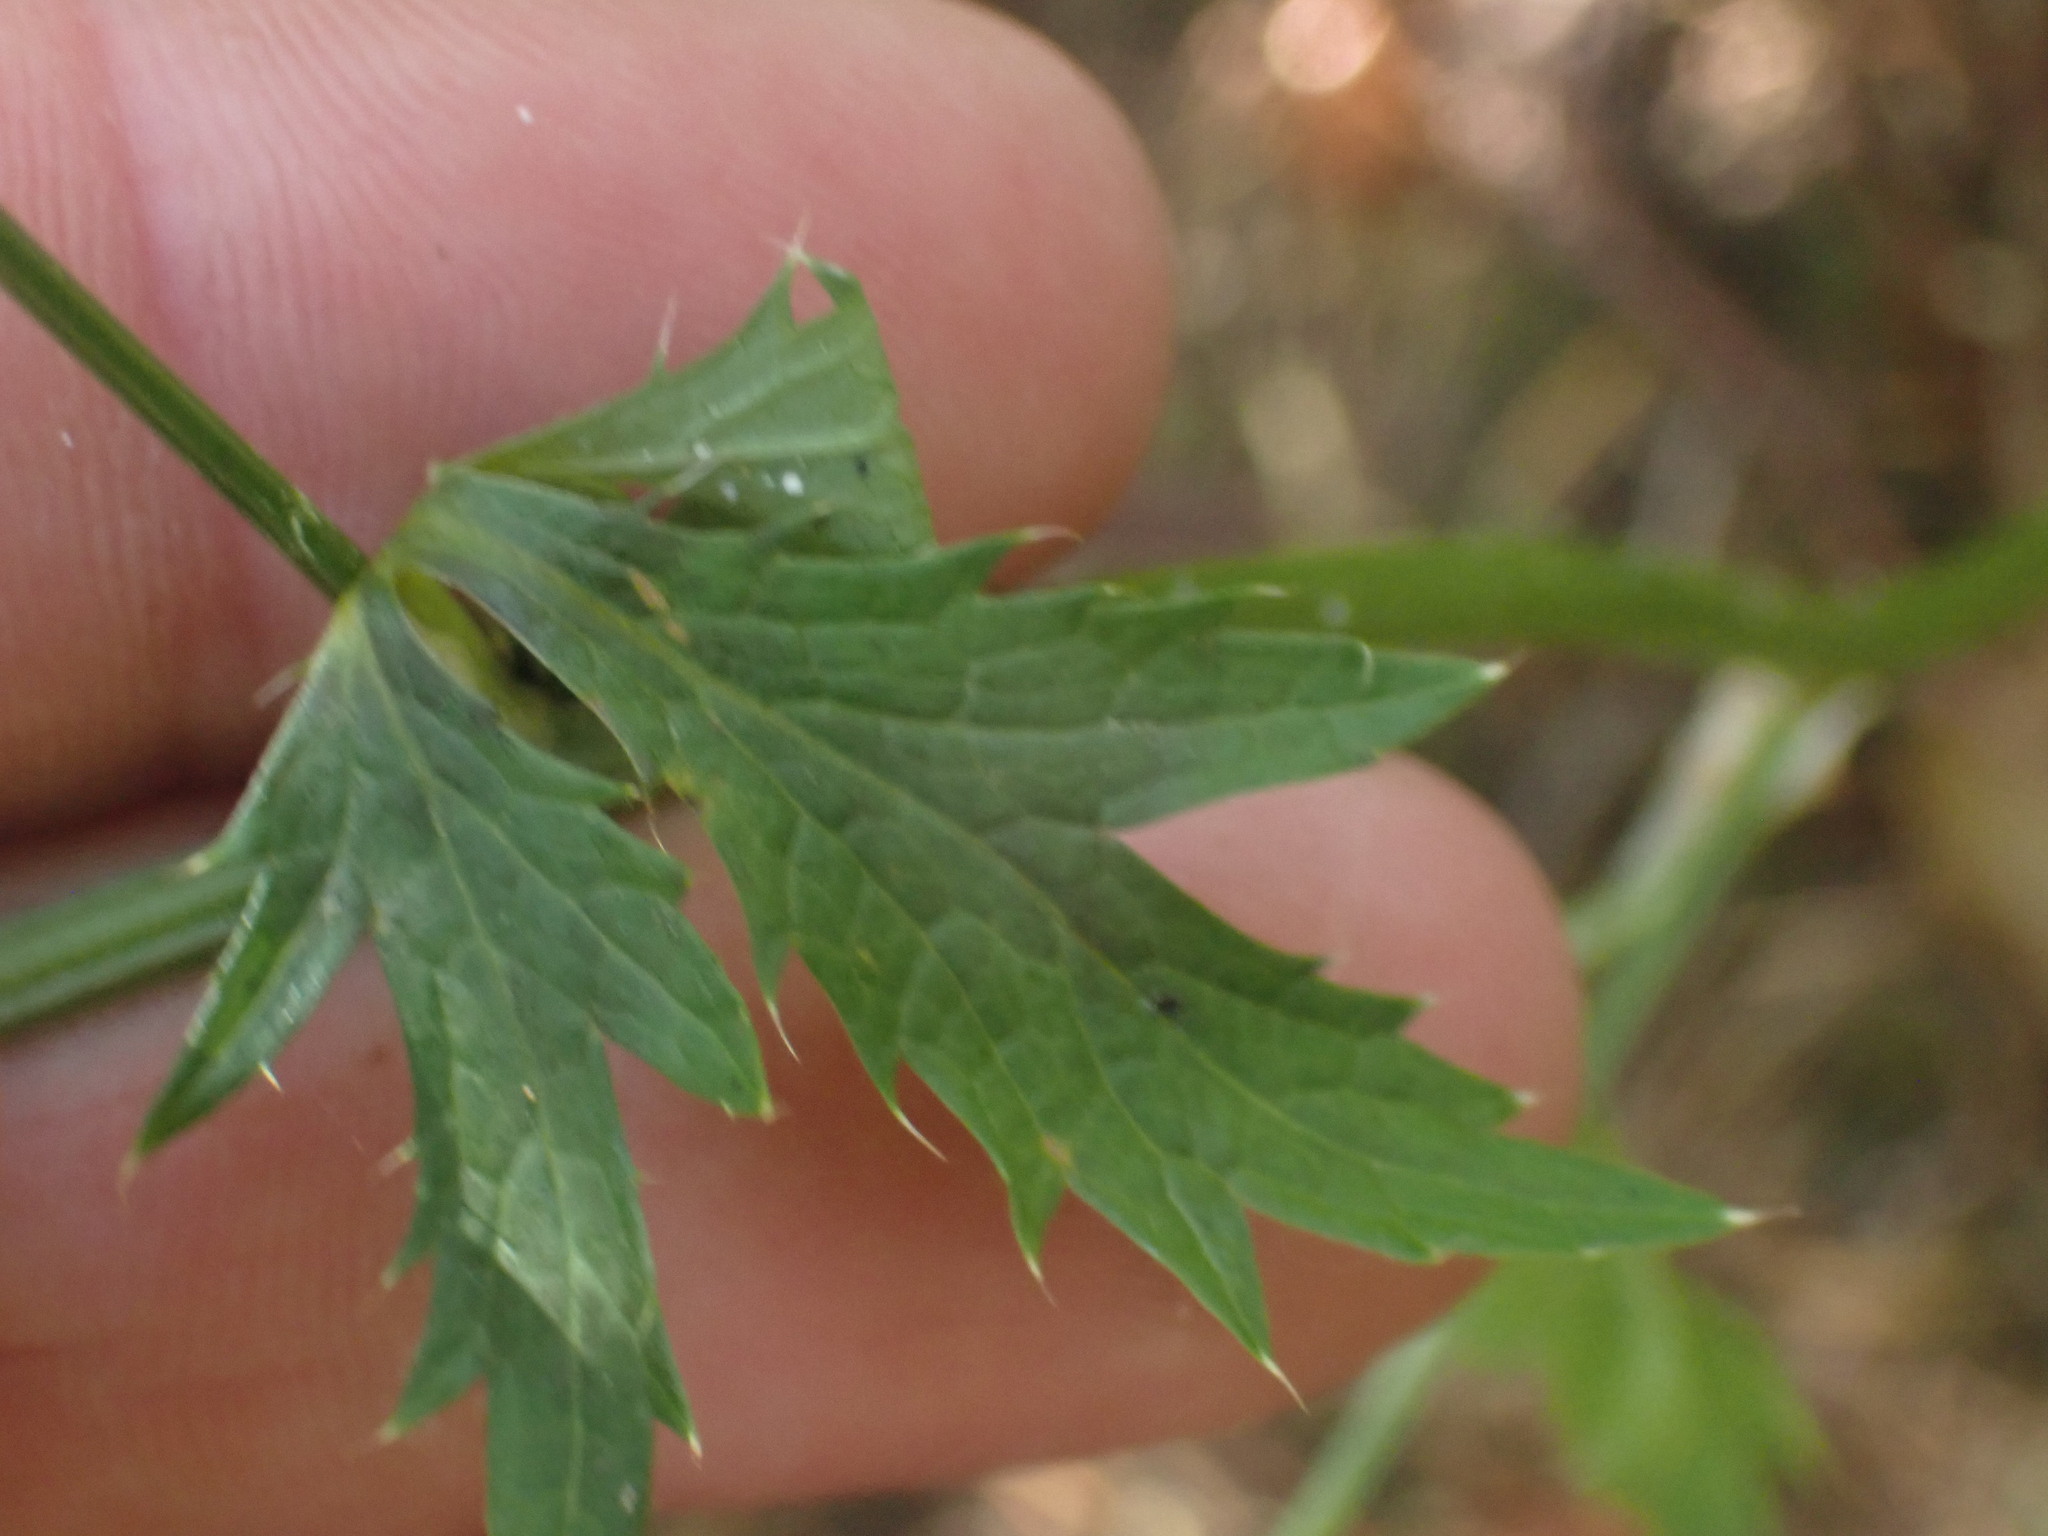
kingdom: Plantae
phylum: Tracheophyta
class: Magnoliopsida
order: Apiales
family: Apiaceae
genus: Sanicula
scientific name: Sanicula crassicaulis
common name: Western snakeroot
